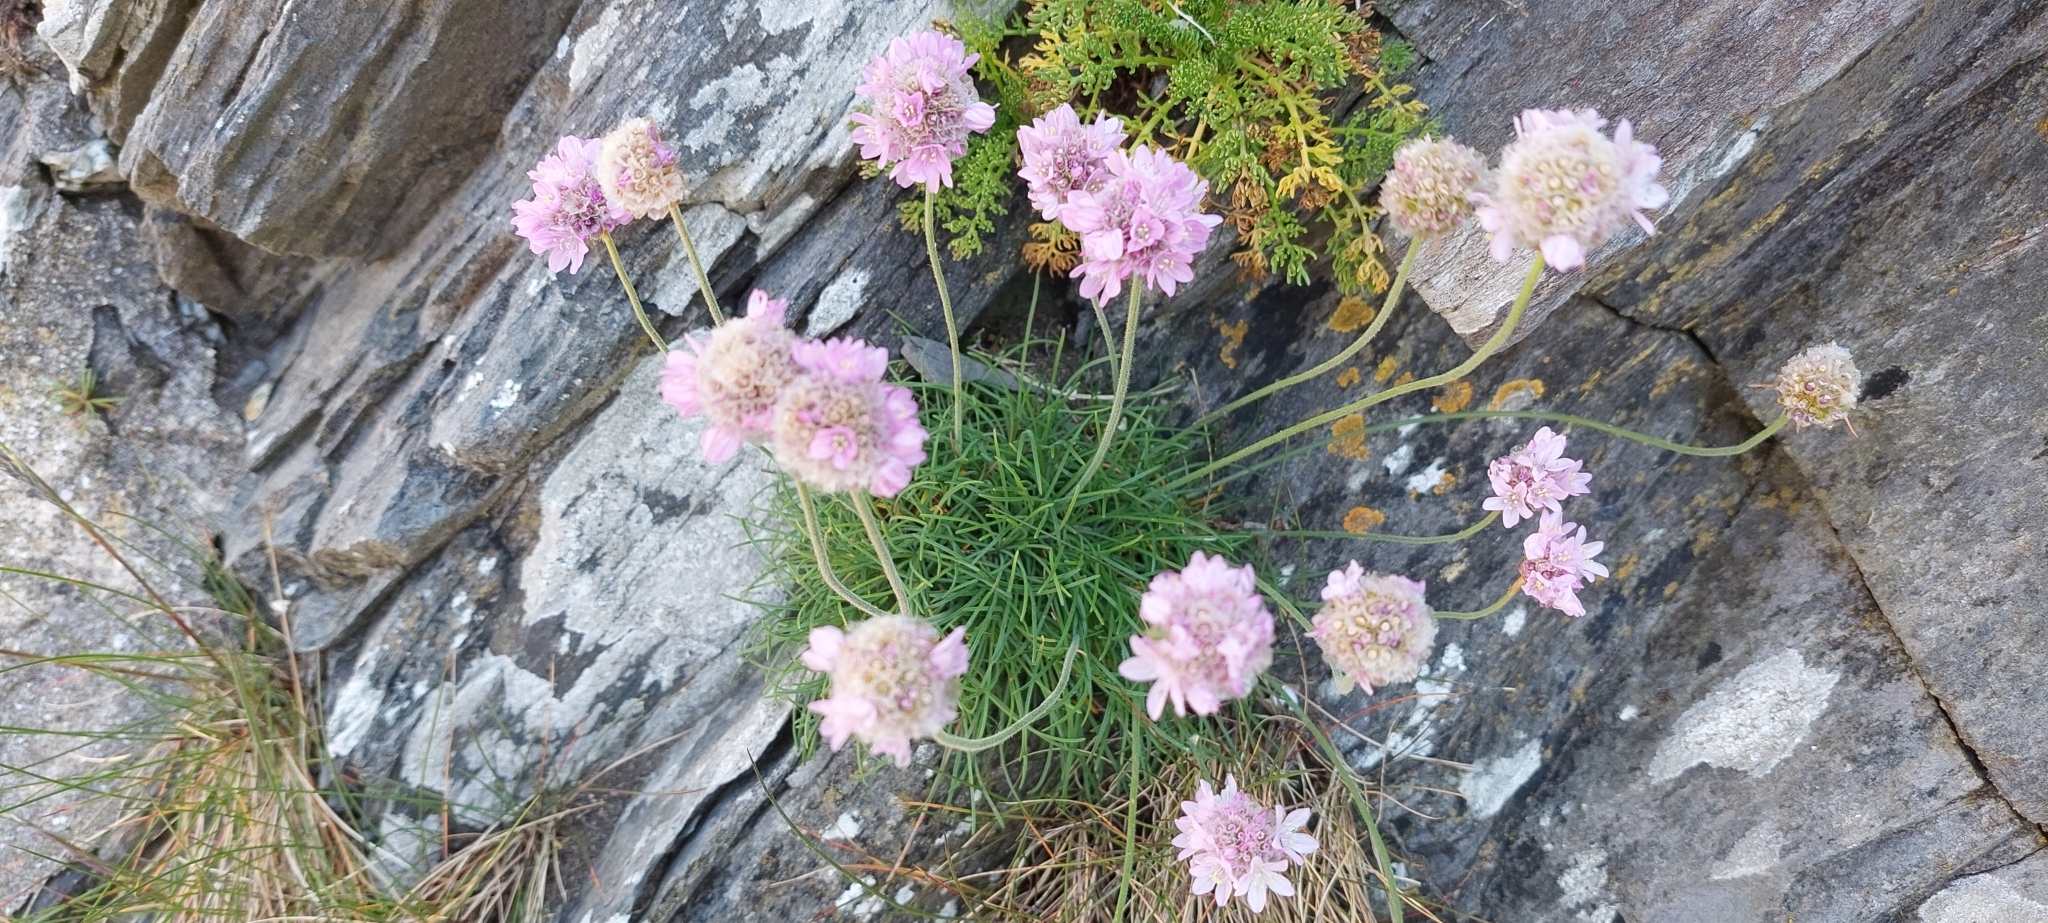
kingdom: Plantae
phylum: Tracheophyta
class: Magnoliopsida
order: Caryophyllales
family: Plumbaginaceae
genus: Armeria
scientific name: Armeria maritima
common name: Thrift
